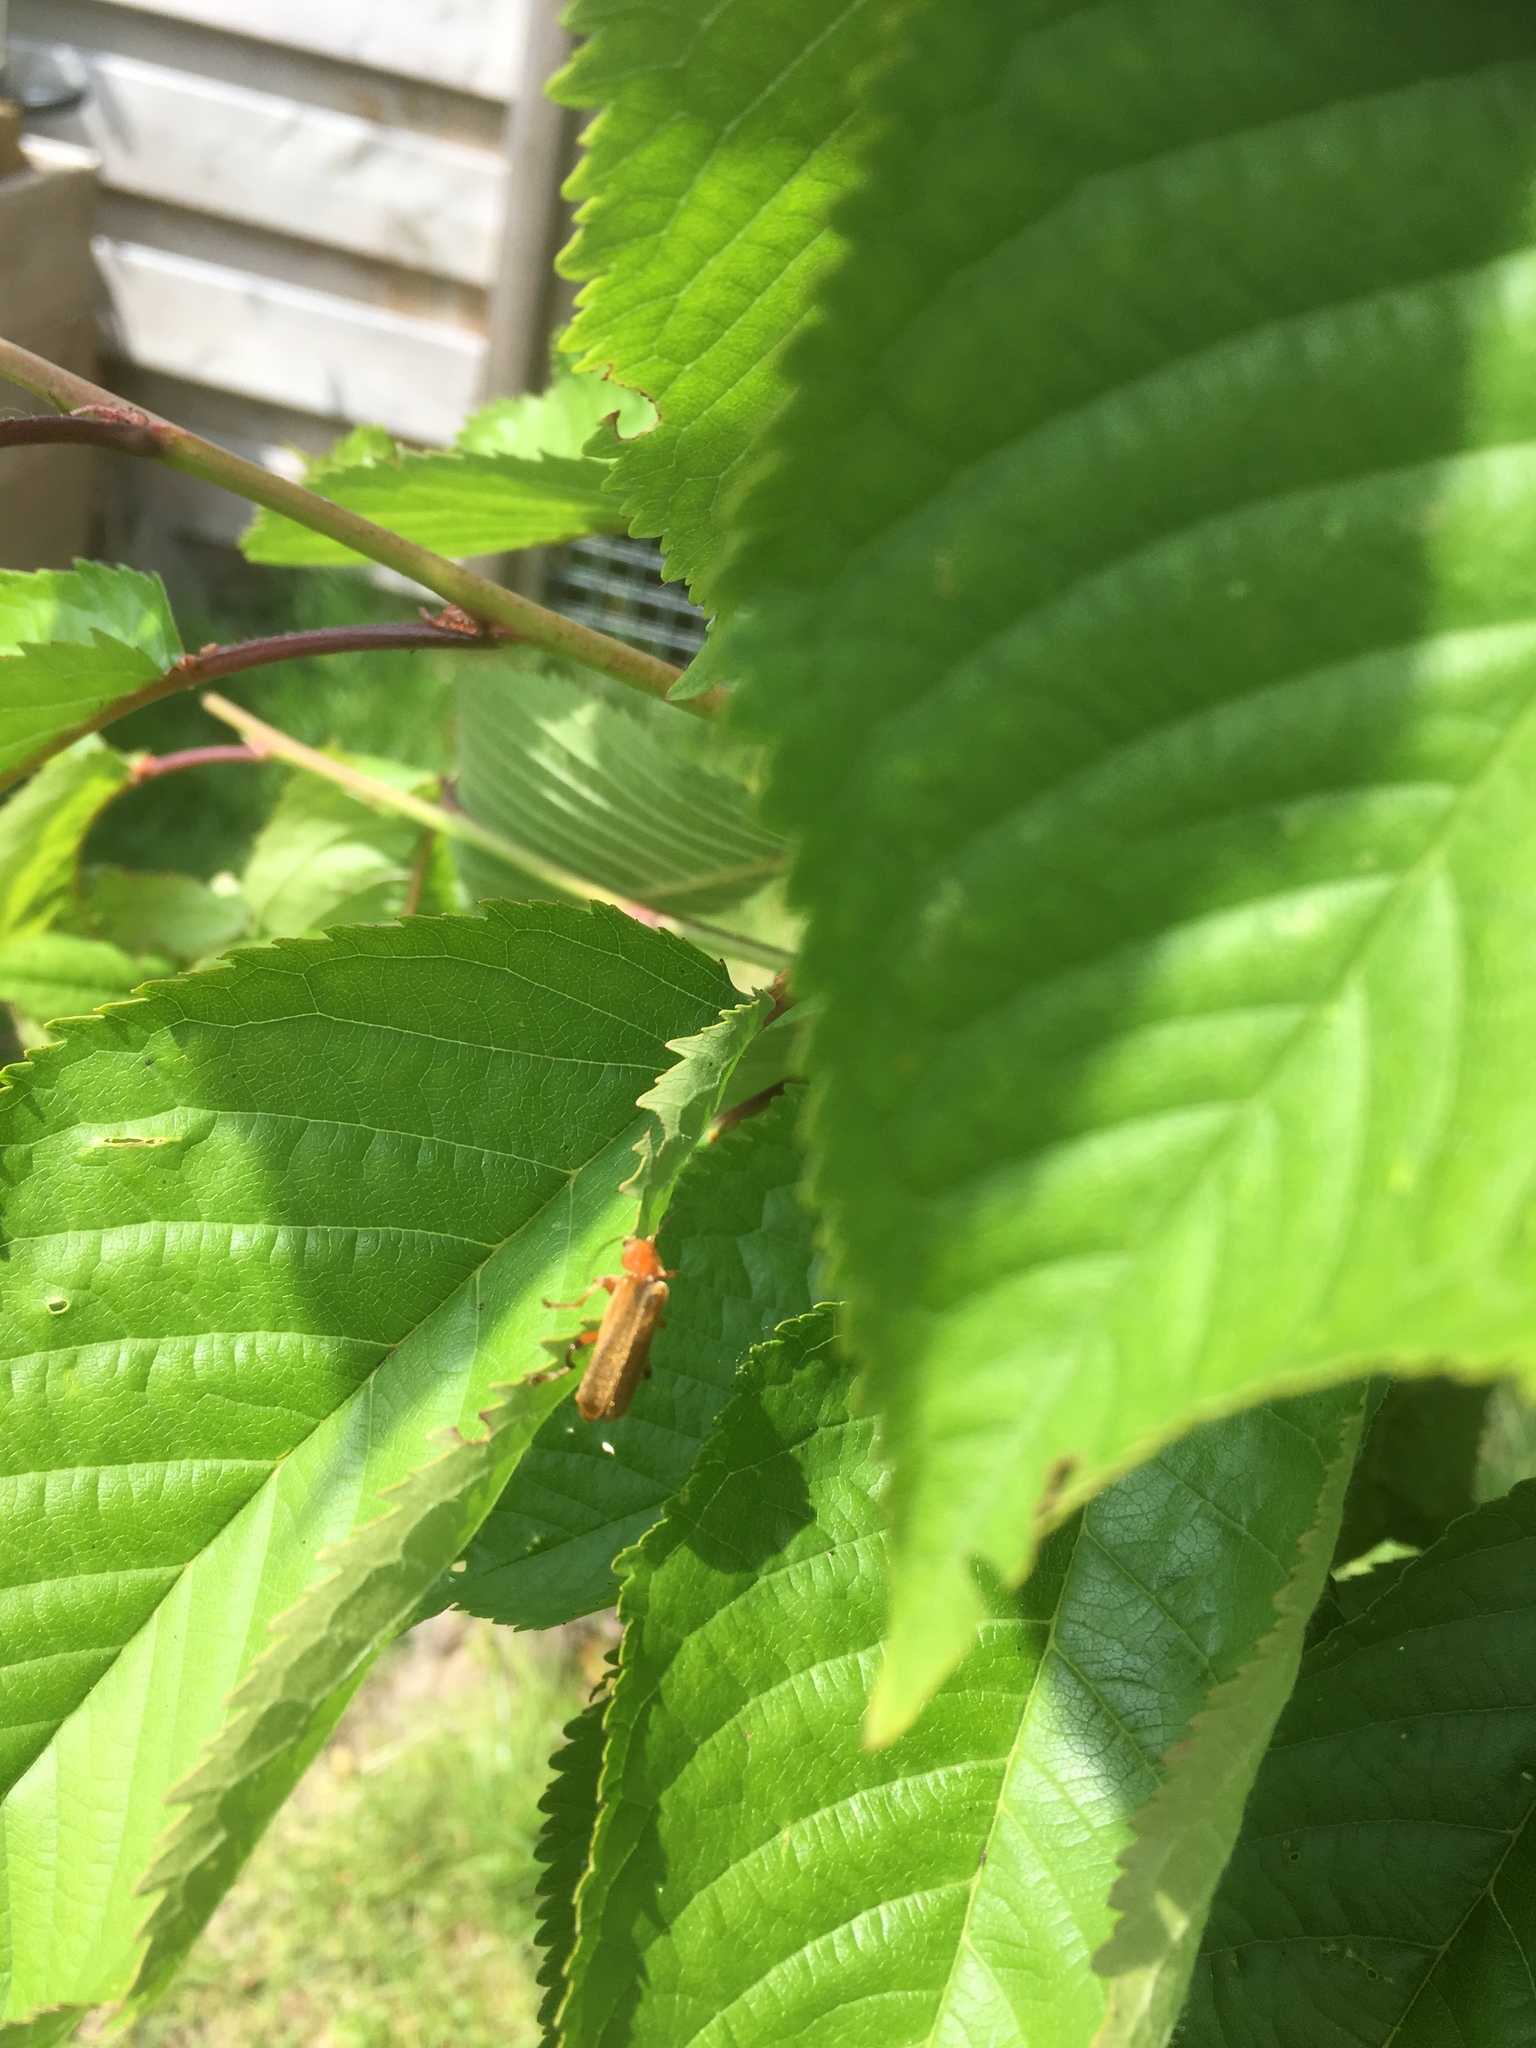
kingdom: Animalia
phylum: Arthropoda
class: Insecta
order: Coleoptera
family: Cantharidae
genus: Cantharis
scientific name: Cantharis livida
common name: Livid soldier beetle
